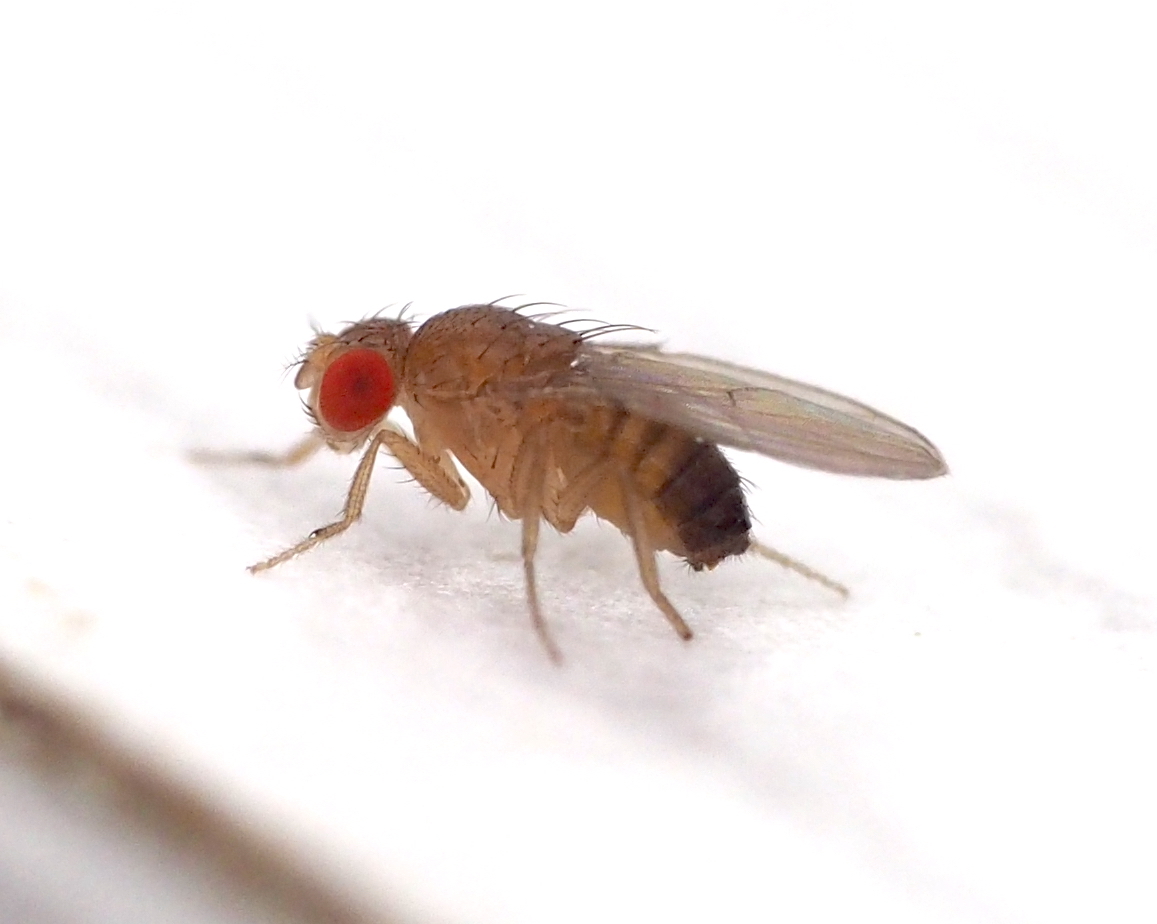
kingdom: Animalia
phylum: Arthropoda
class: Insecta
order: Diptera
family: Drosophilidae
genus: Drosophila
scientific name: Drosophila melanogaster
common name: Pomace fly
